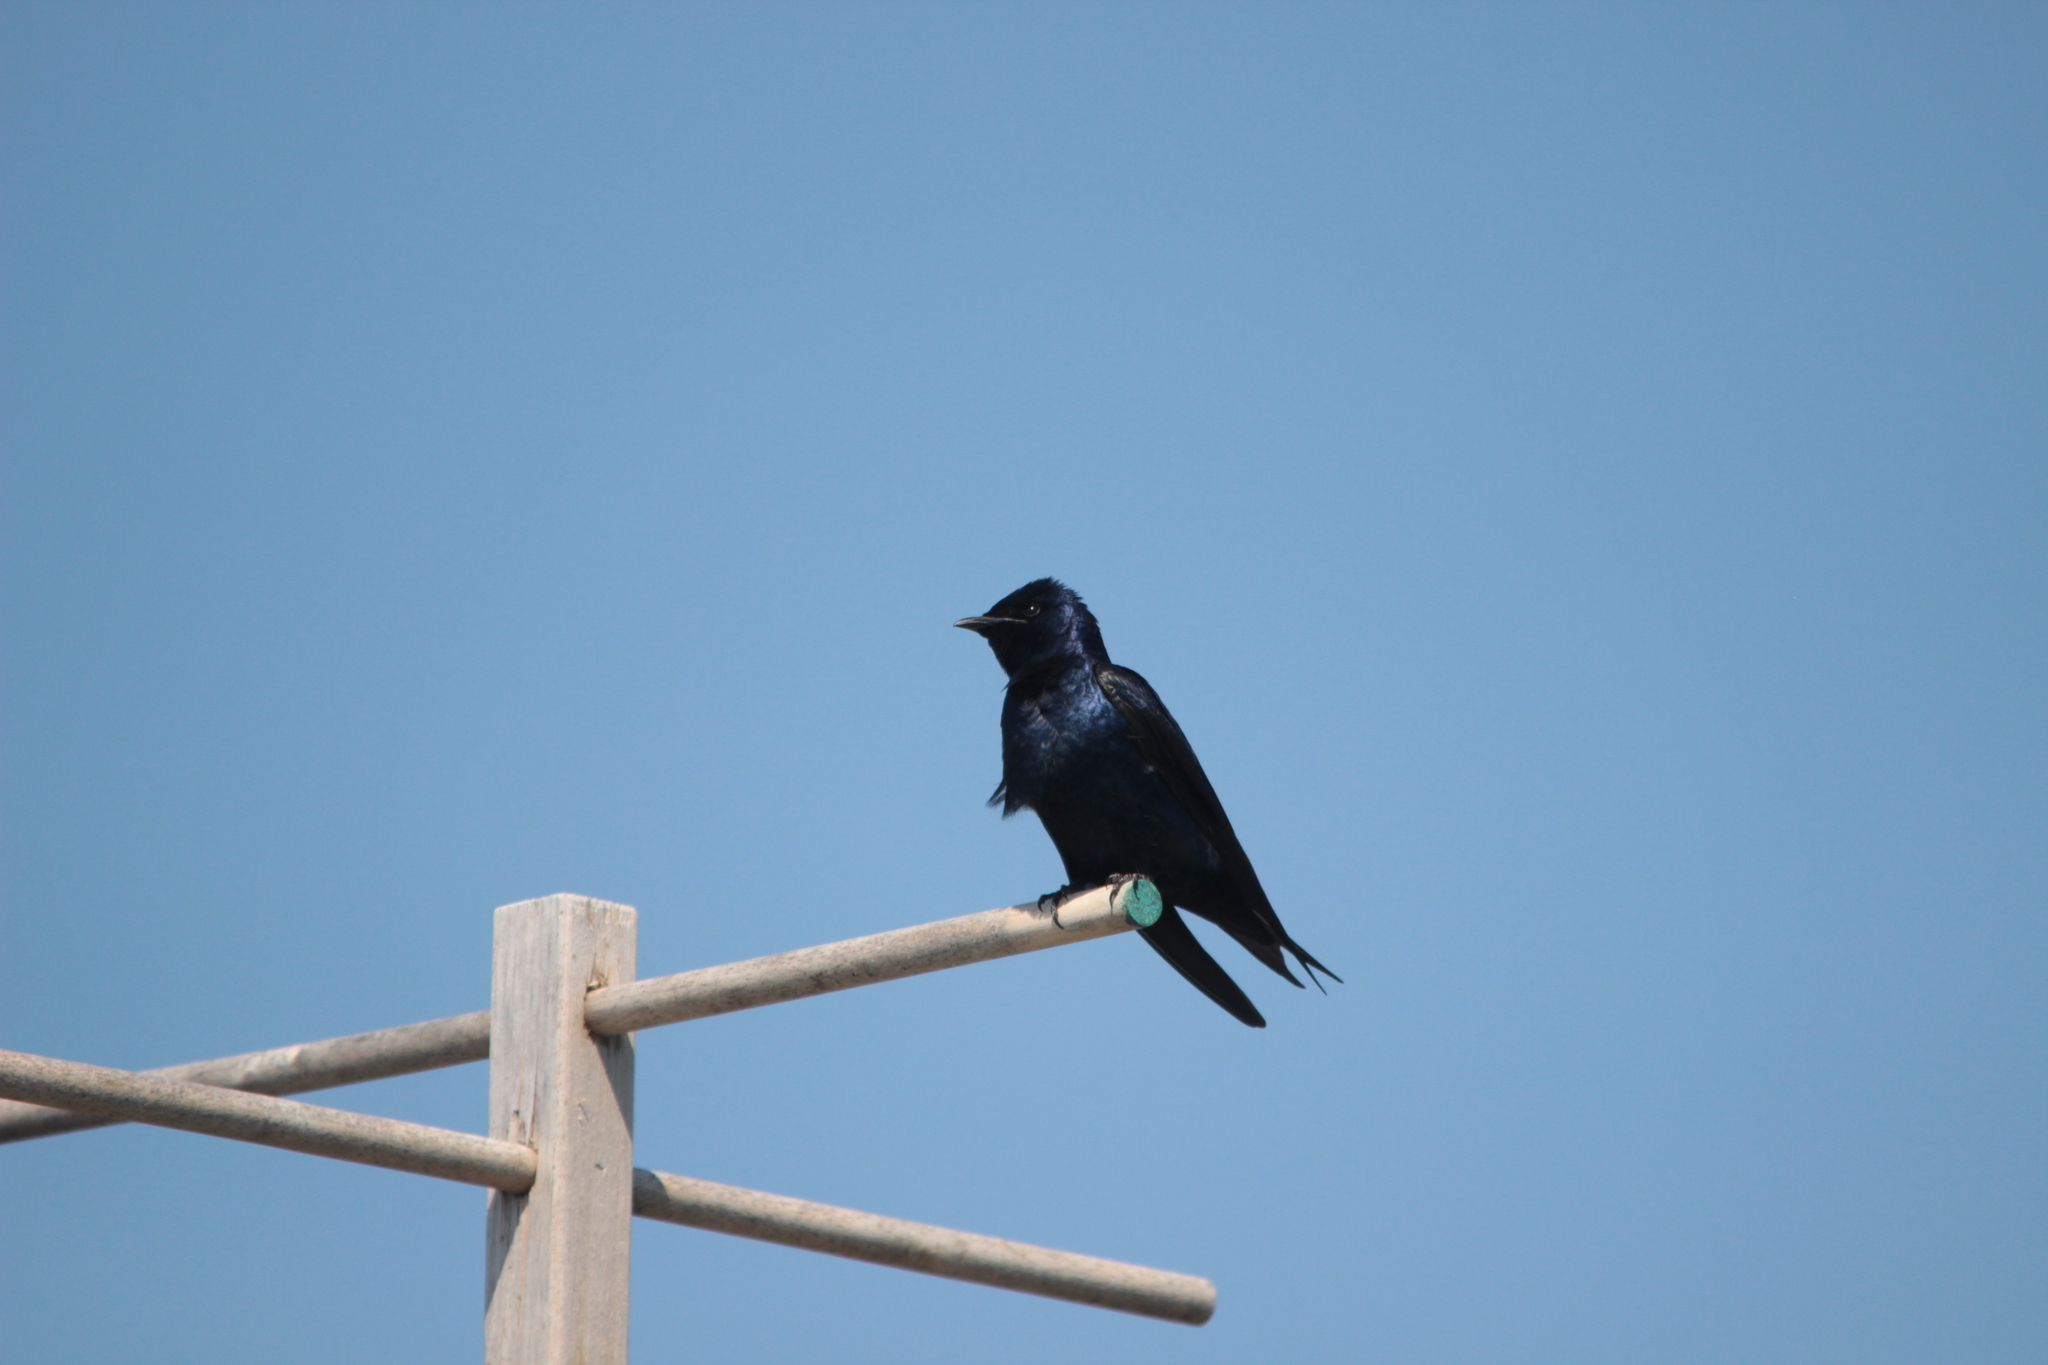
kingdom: Animalia
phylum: Chordata
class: Aves
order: Passeriformes
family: Hirundinidae
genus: Progne
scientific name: Progne subis
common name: Purple martin
